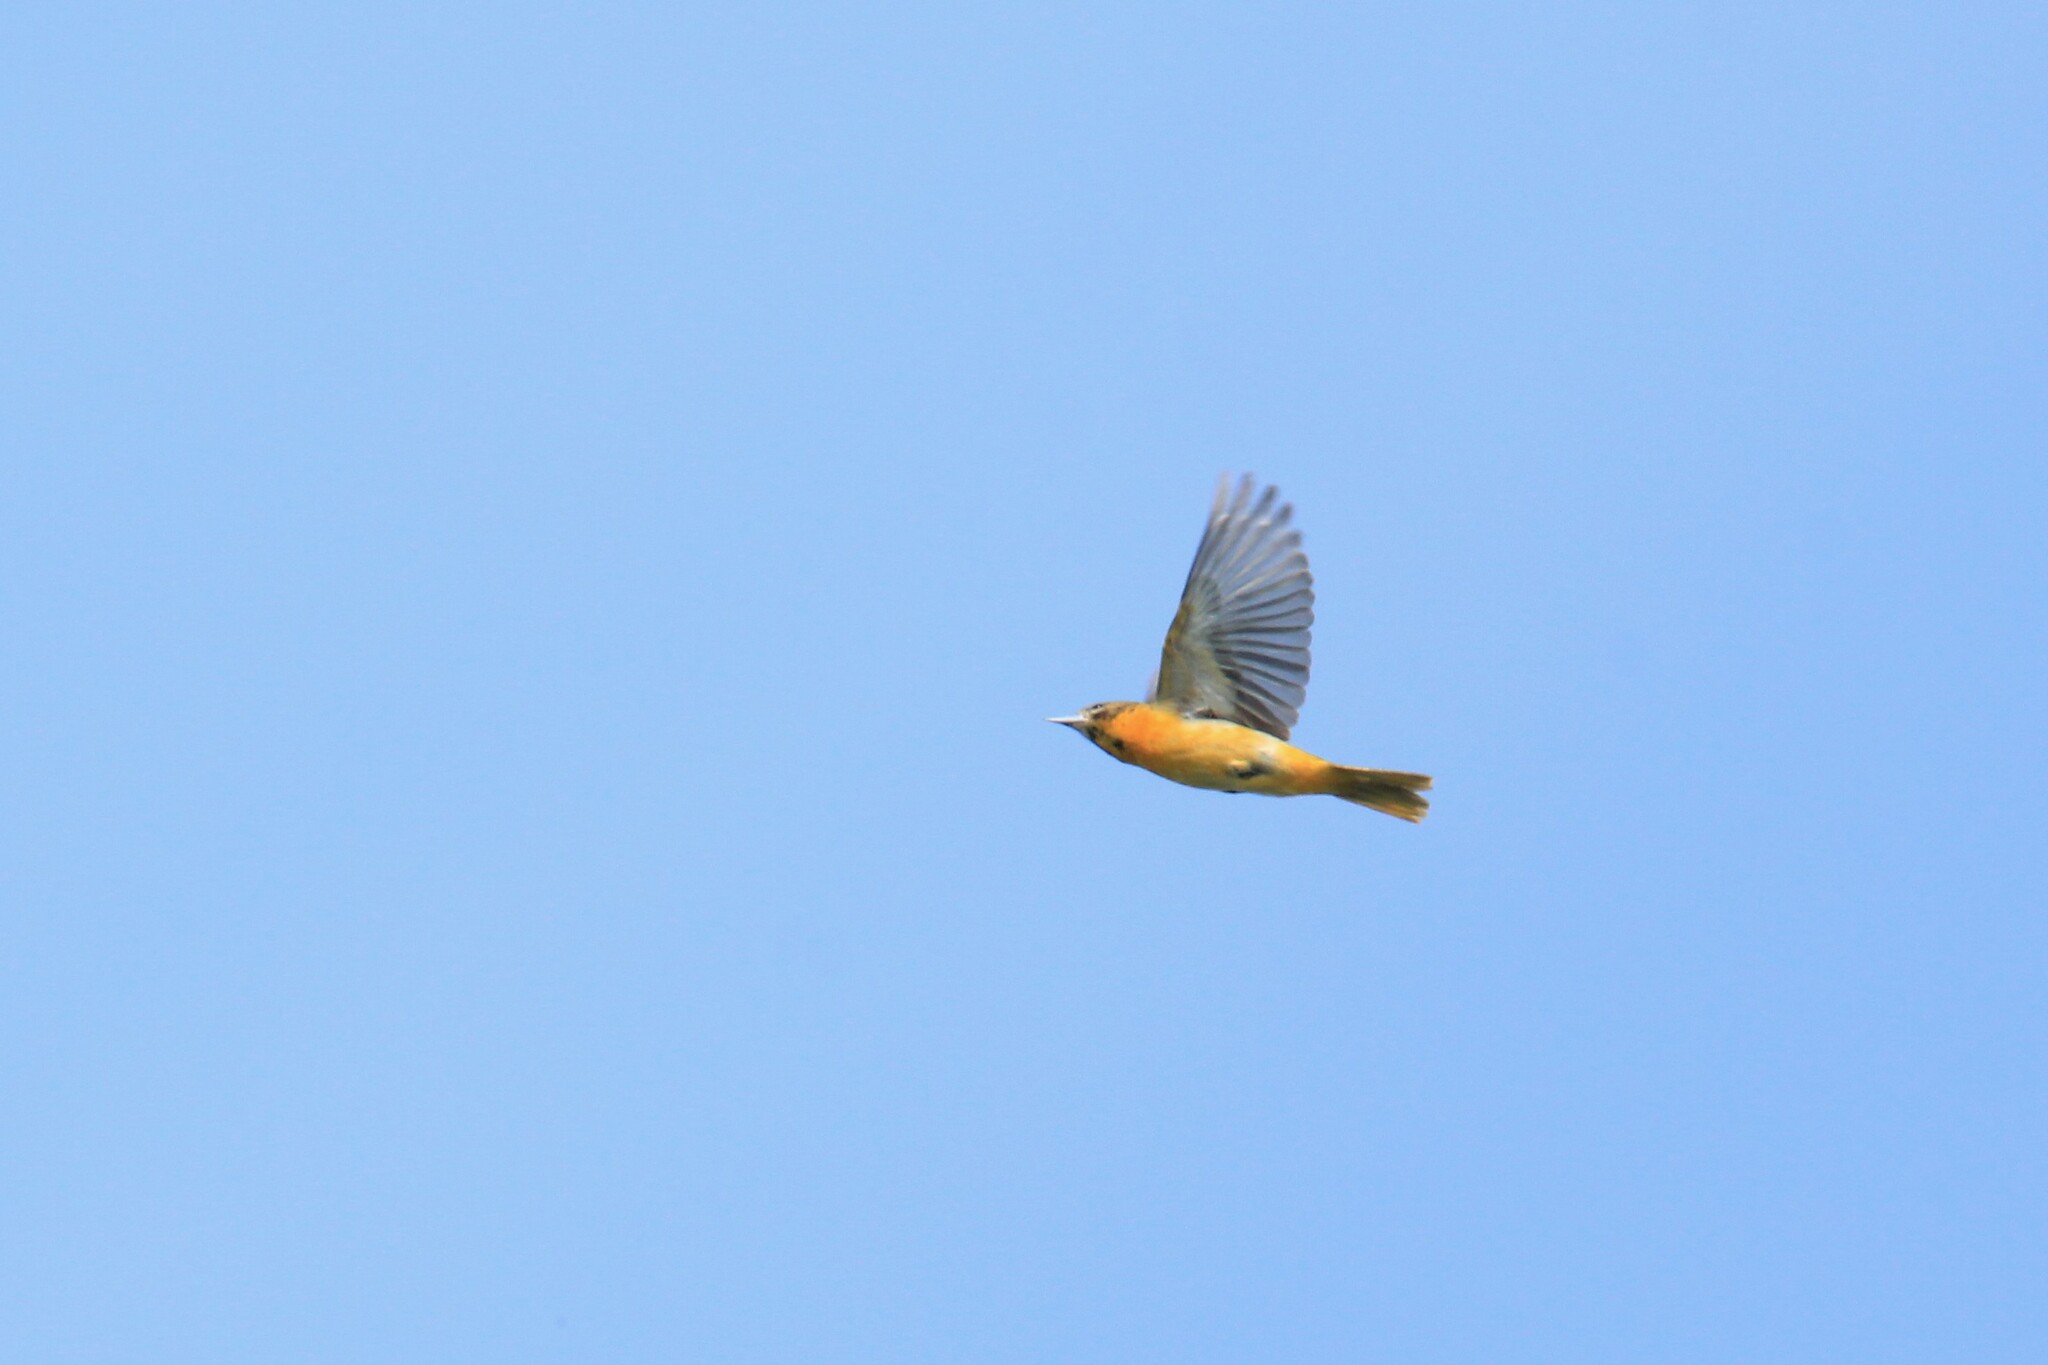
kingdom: Animalia
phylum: Chordata
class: Aves
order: Passeriformes
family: Icteridae
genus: Icterus
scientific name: Icterus galbula
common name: Baltimore oriole
